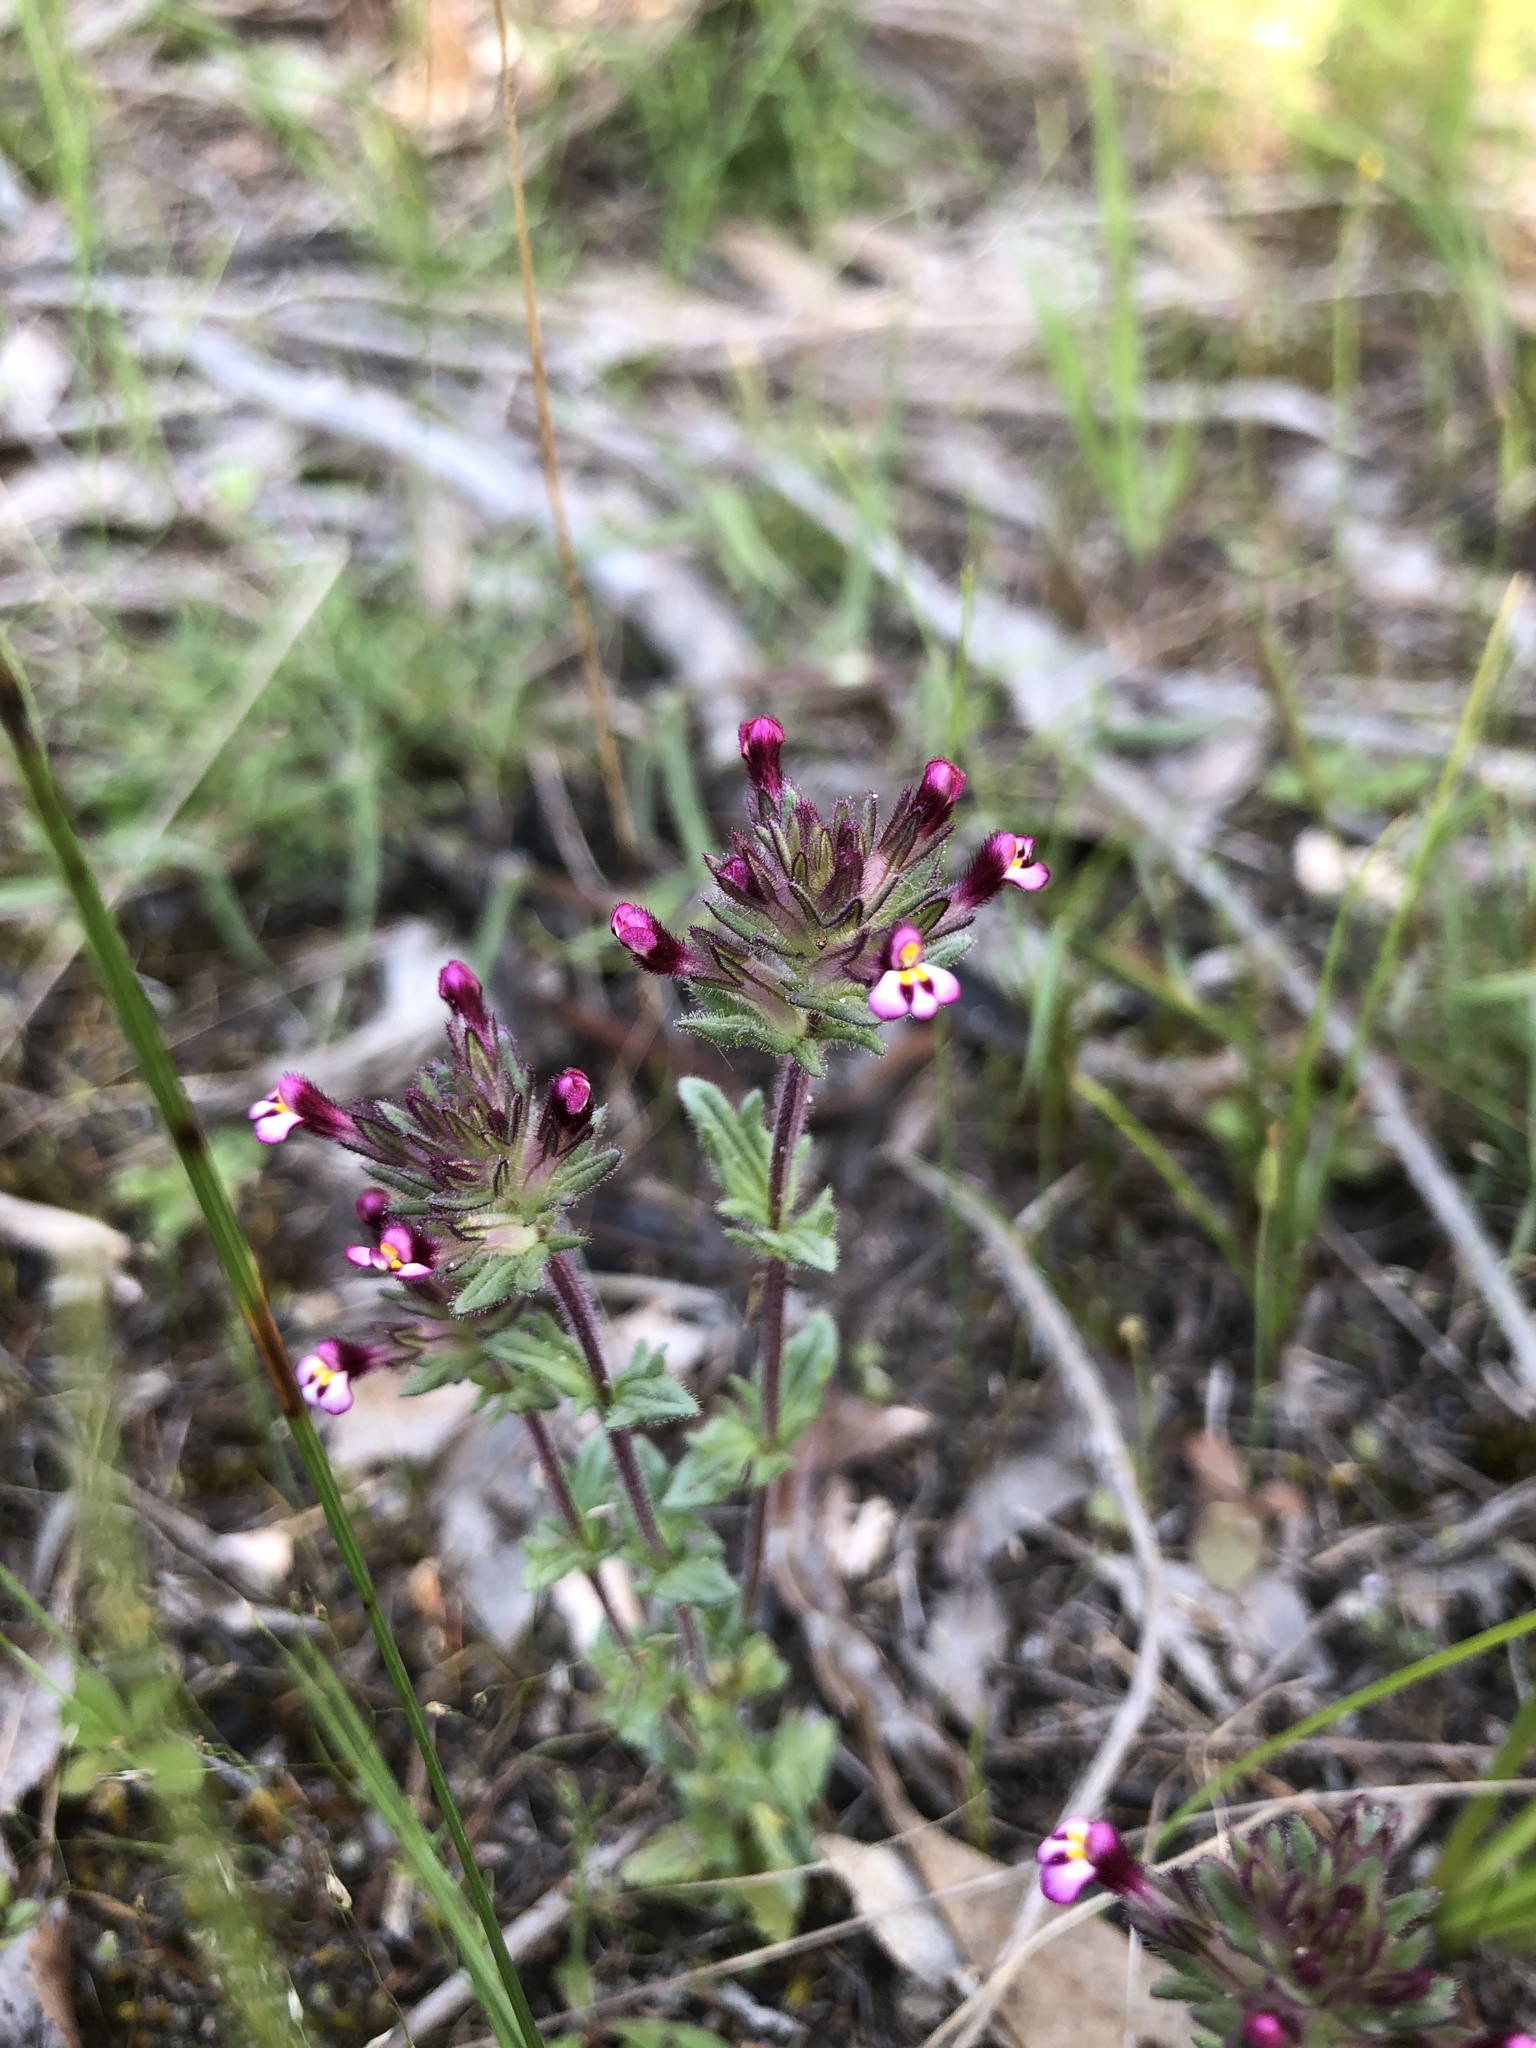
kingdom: Plantae
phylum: Tracheophyta
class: Magnoliopsida
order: Lamiales
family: Orobanchaceae
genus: Parentucellia
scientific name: Parentucellia latifolia
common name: Broadleaf glandweed
